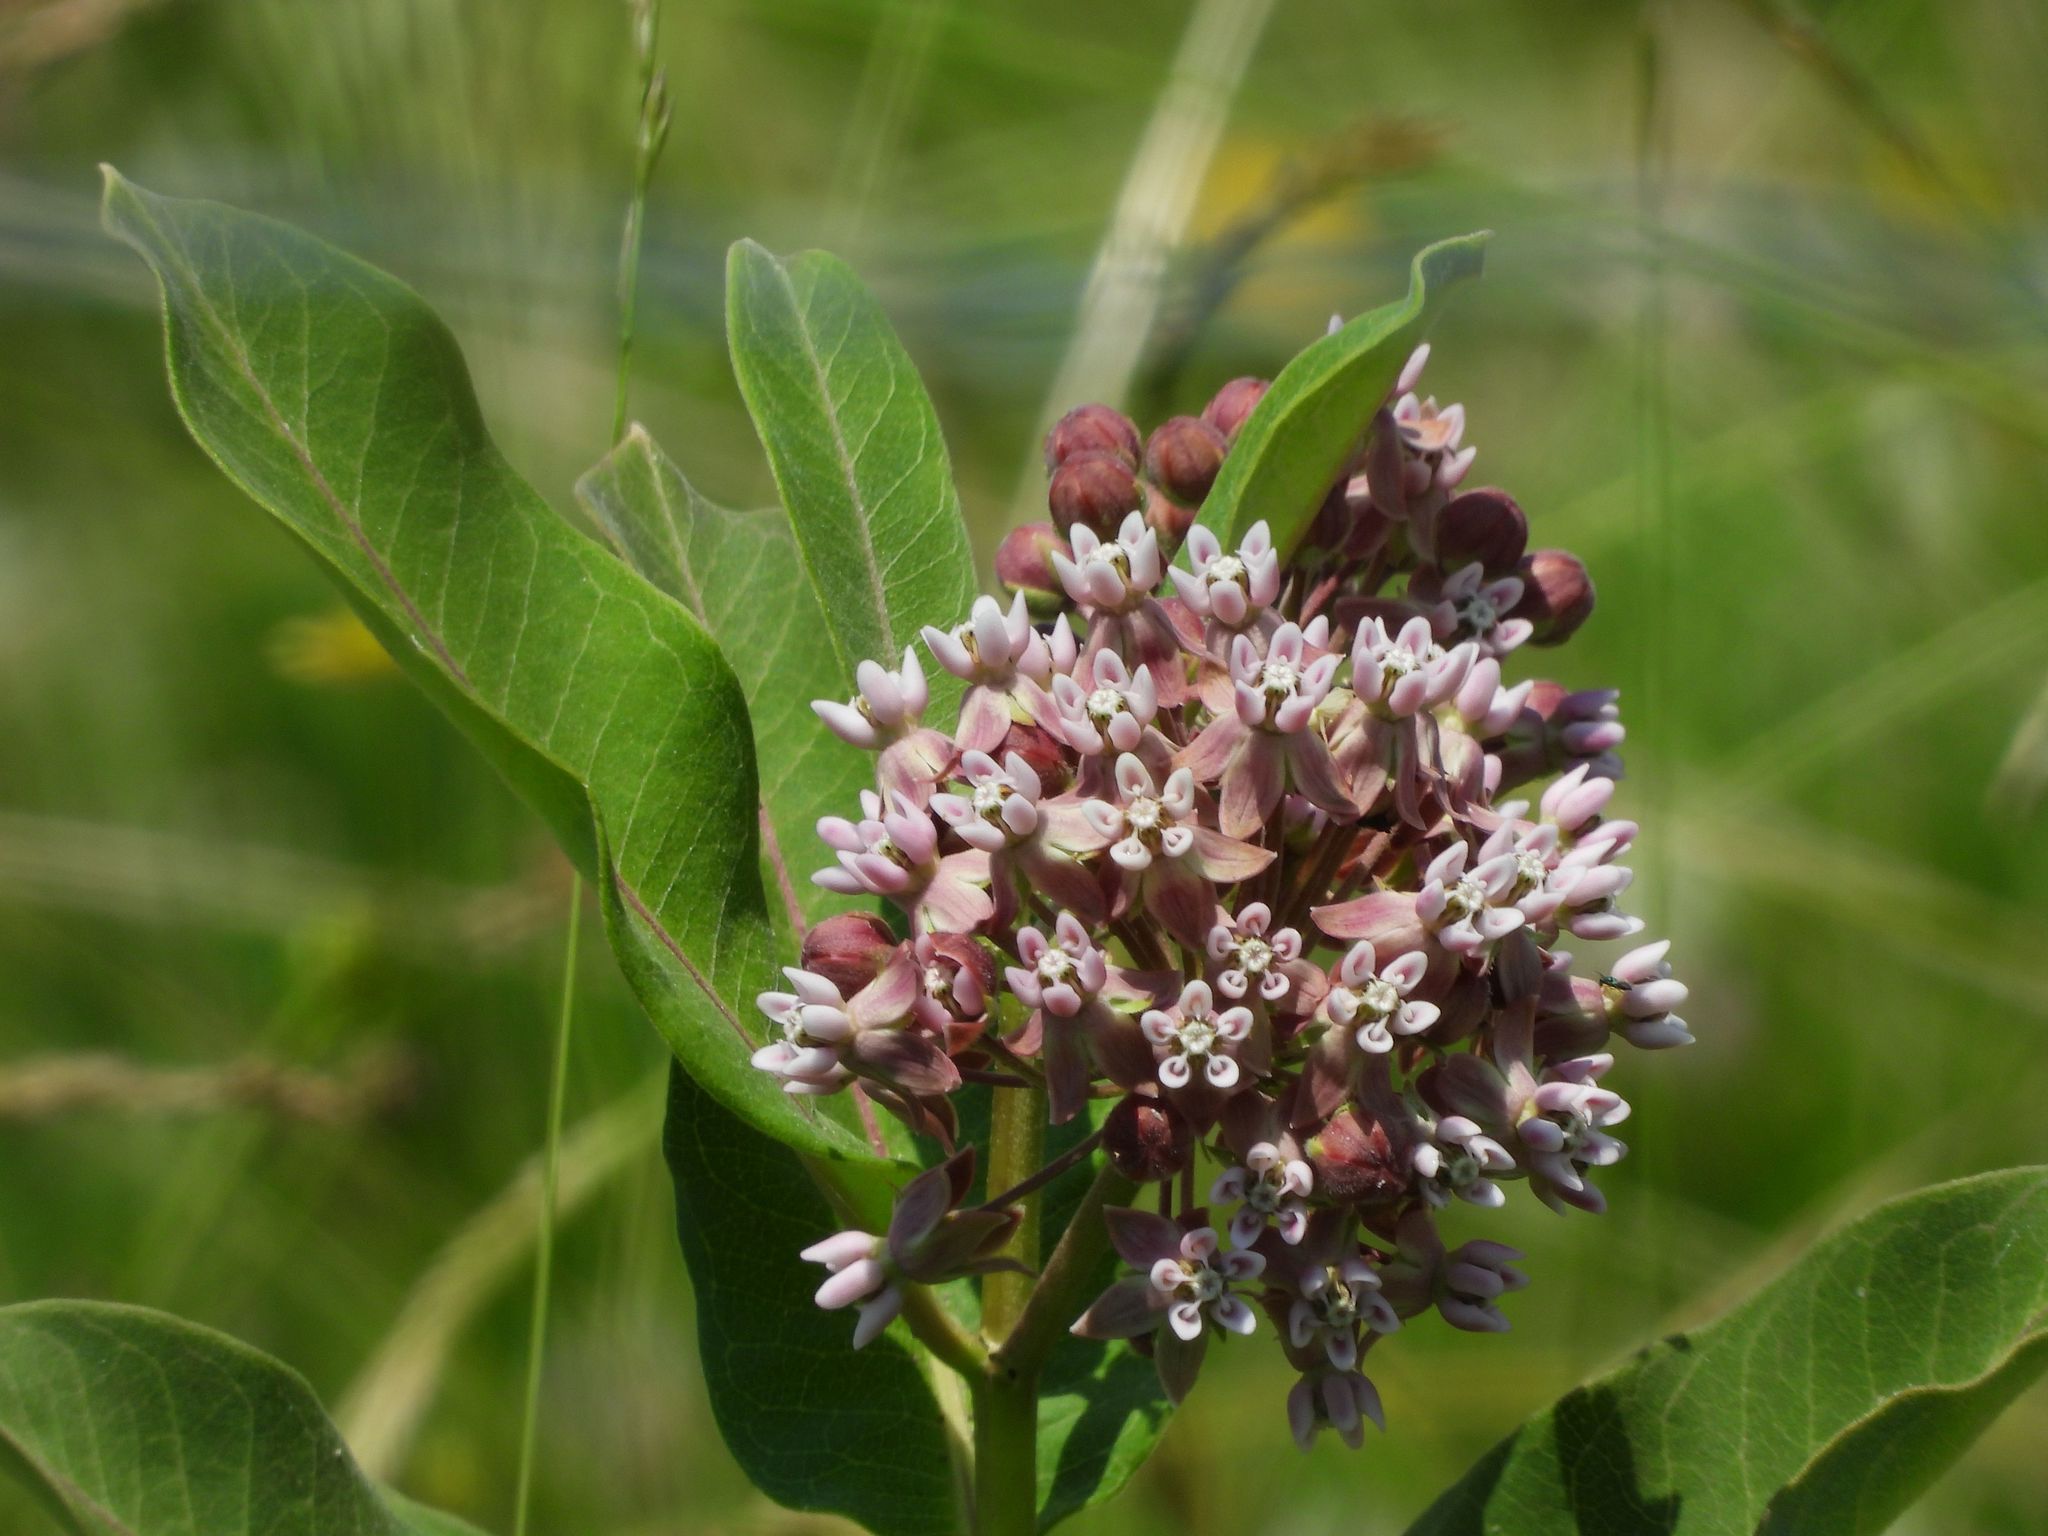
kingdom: Plantae
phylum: Tracheophyta
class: Magnoliopsida
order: Gentianales
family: Apocynaceae
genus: Asclepias
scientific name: Asclepias syriaca
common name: Common milkweed
